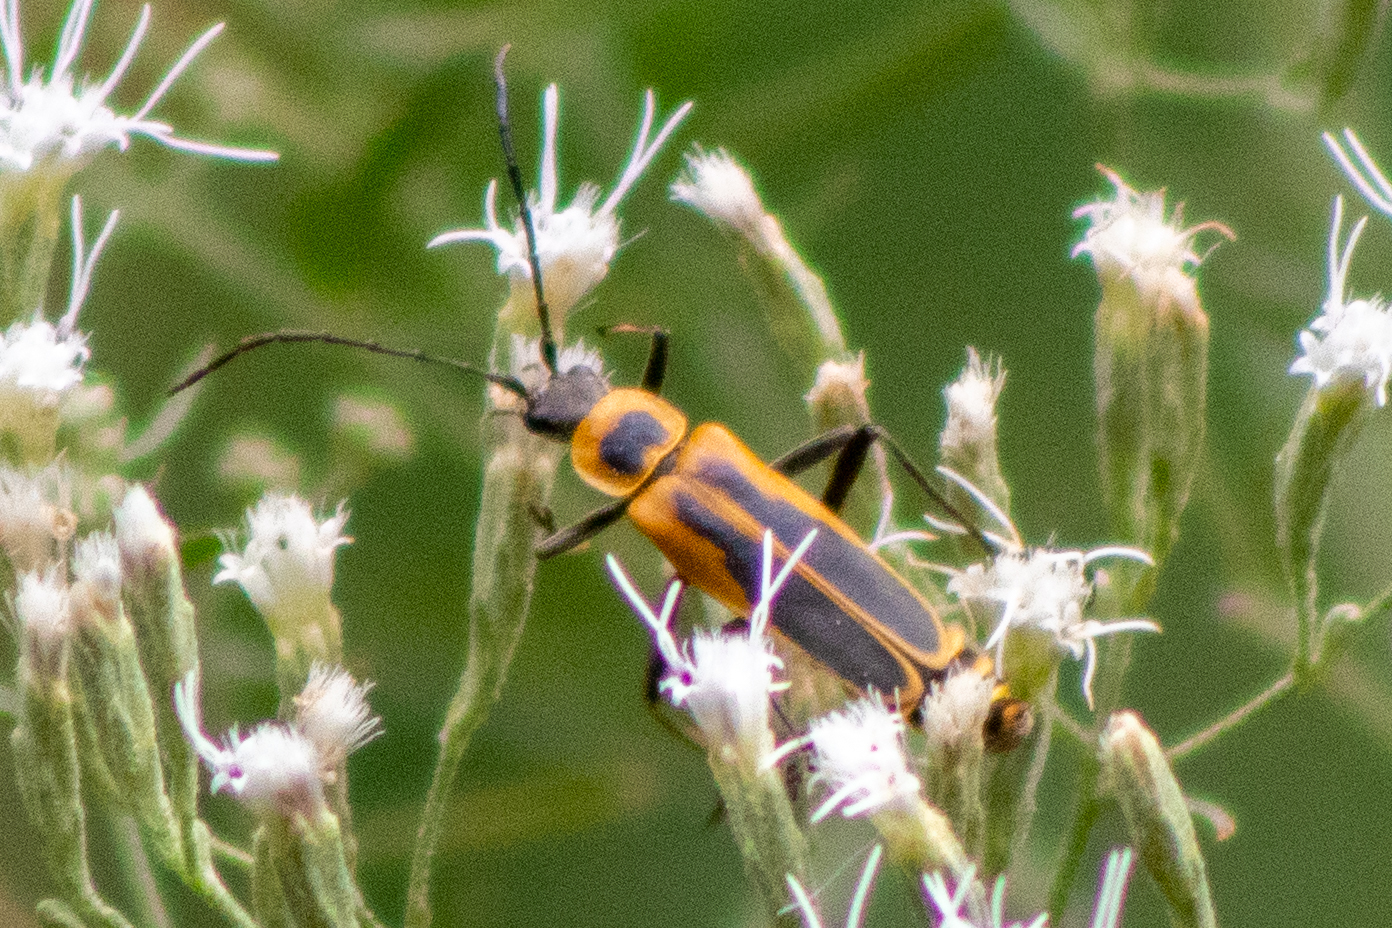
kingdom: Animalia
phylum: Arthropoda
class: Insecta
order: Coleoptera
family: Cantharidae
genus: Chauliognathus
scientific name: Chauliognathus pensylvanicus
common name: Goldenrod soldier beetle
